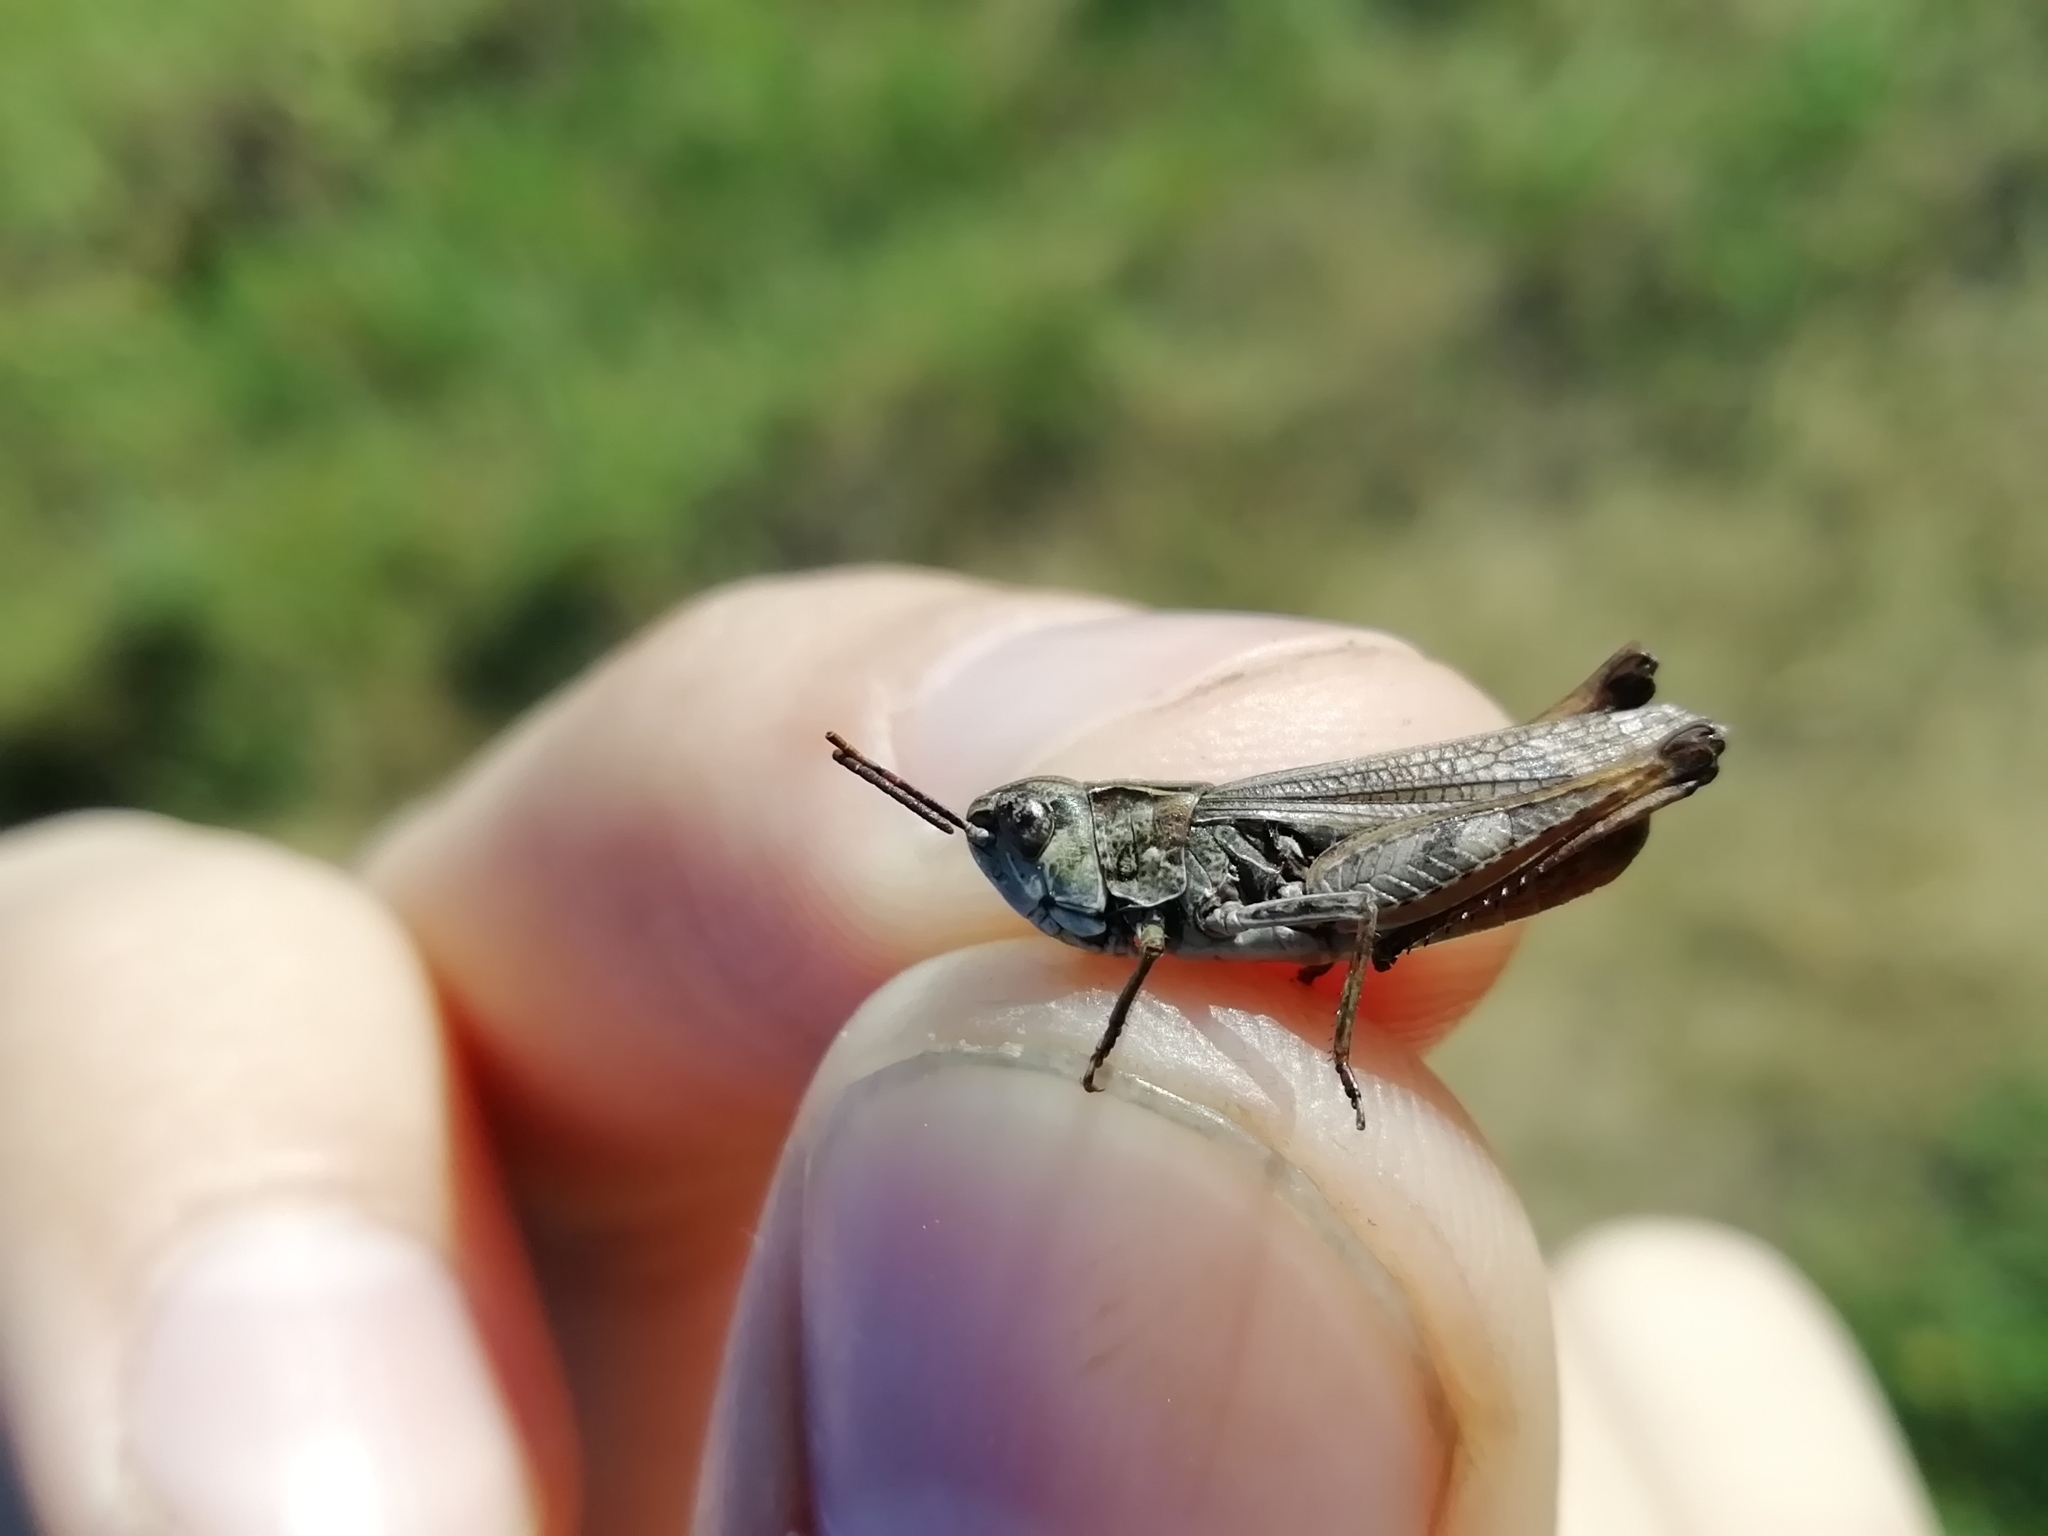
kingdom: Animalia
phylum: Arthropoda
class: Insecta
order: Orthoptera
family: Acrididae
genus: Omocestus
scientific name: Omocestus haemorrhoidalis
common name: Orange-tipped grasshopper
